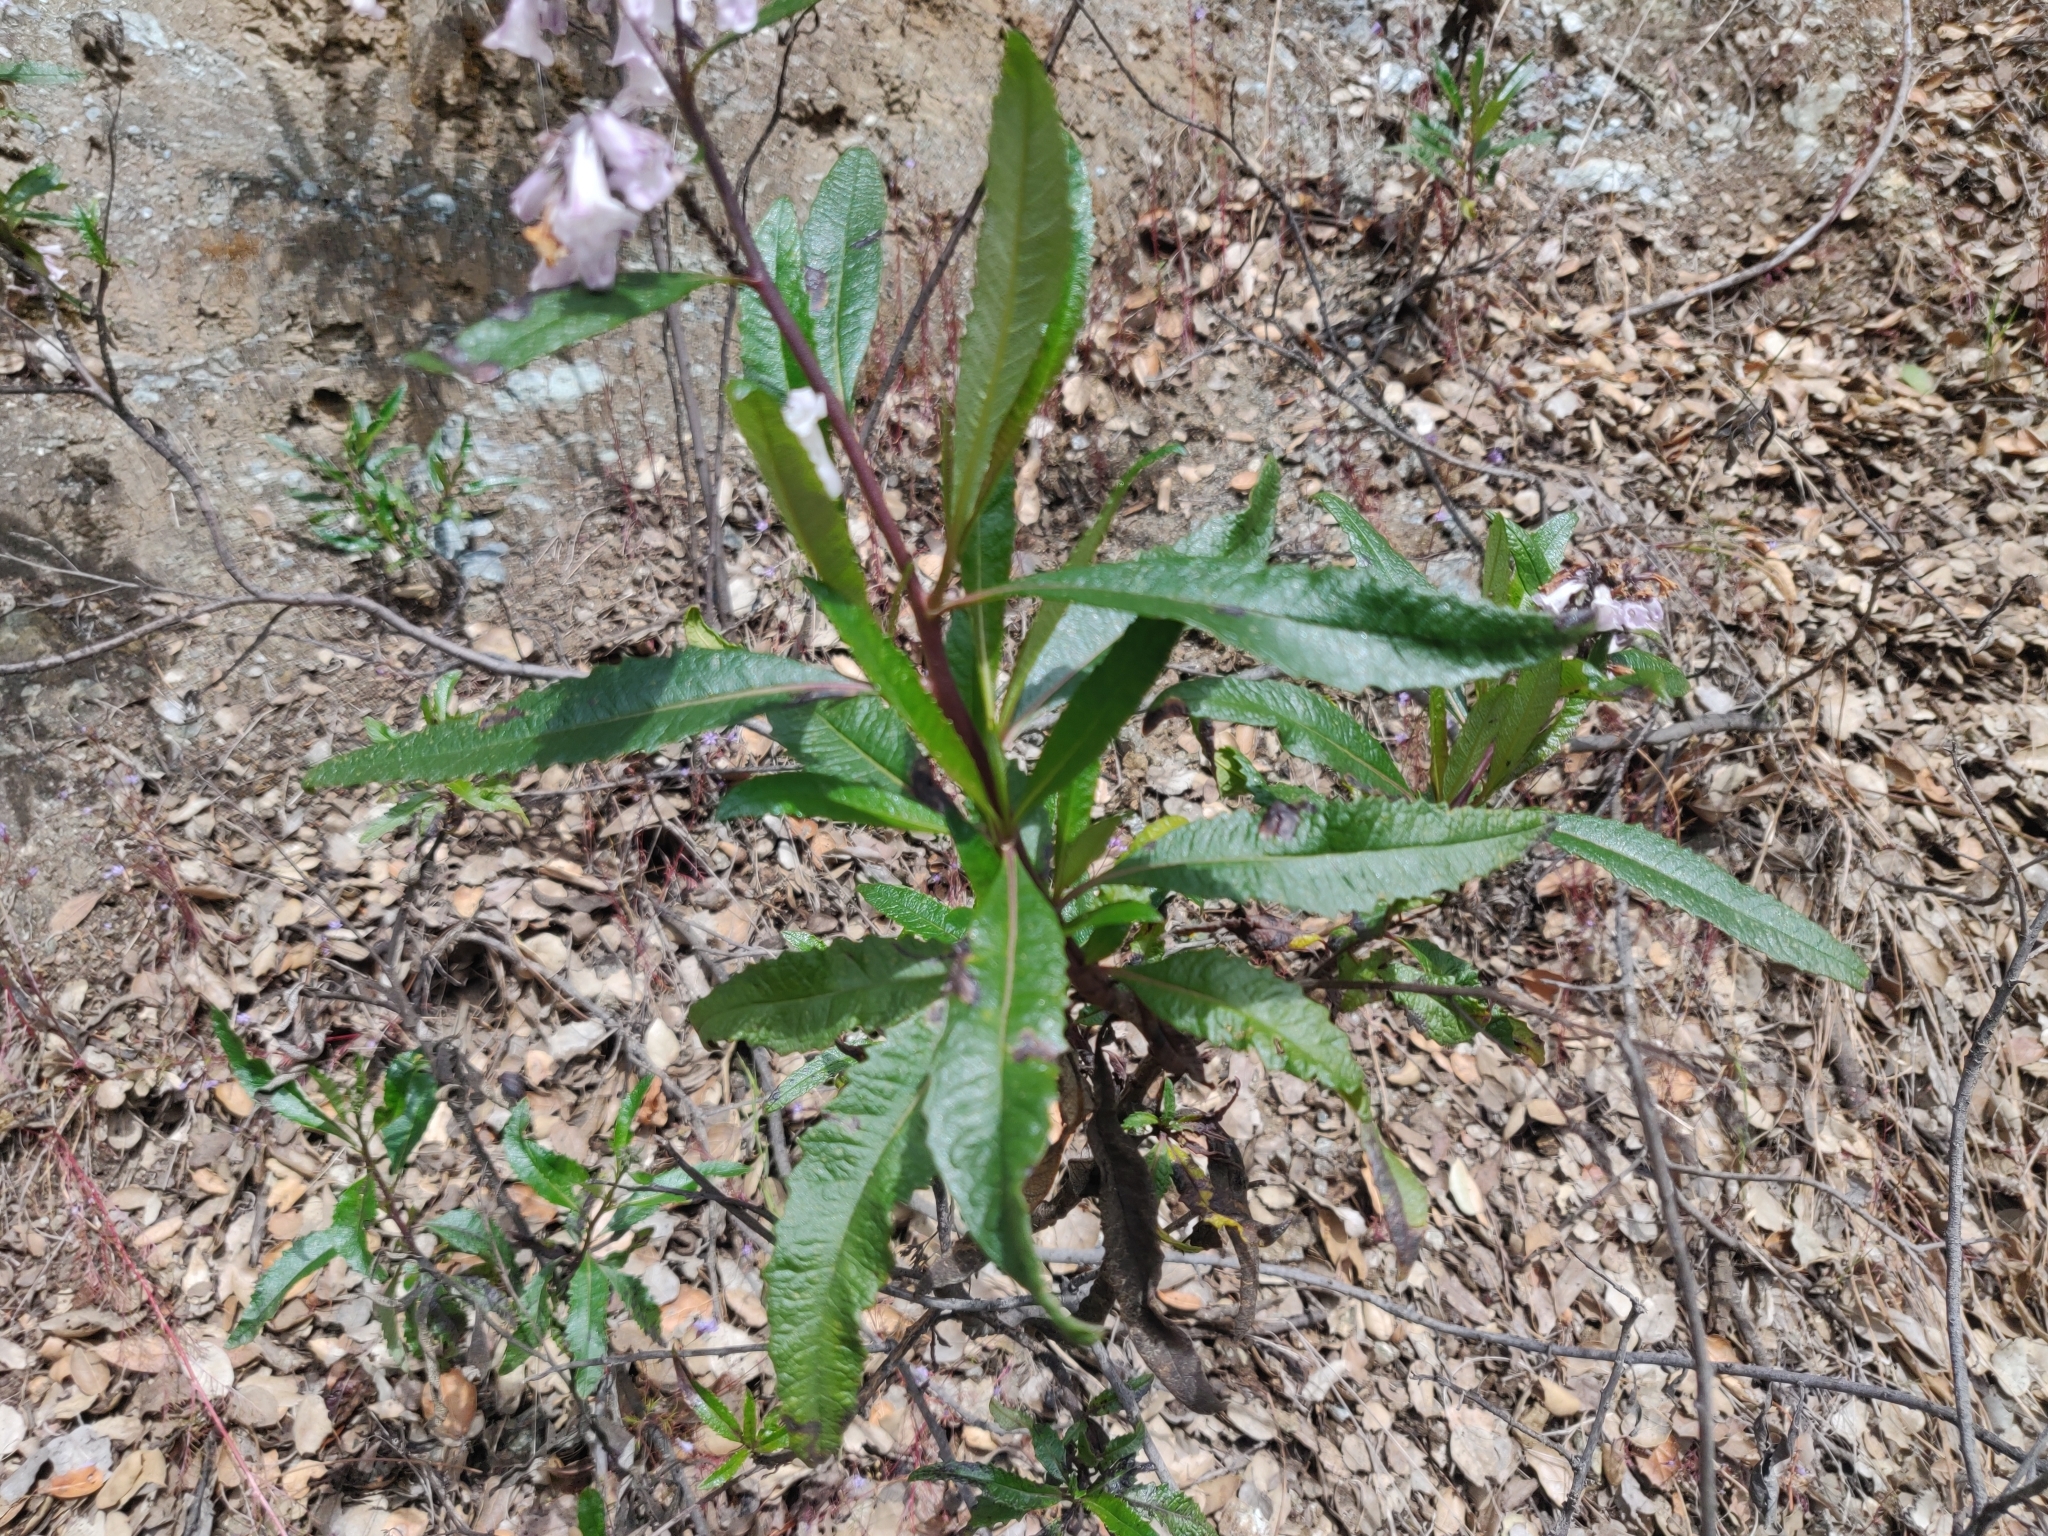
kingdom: Plantae
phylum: Tracheophyta
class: Magnoliopsida
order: Boraginales
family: Namaceae
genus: Eriodictyon
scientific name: Eriodictyon californicum
